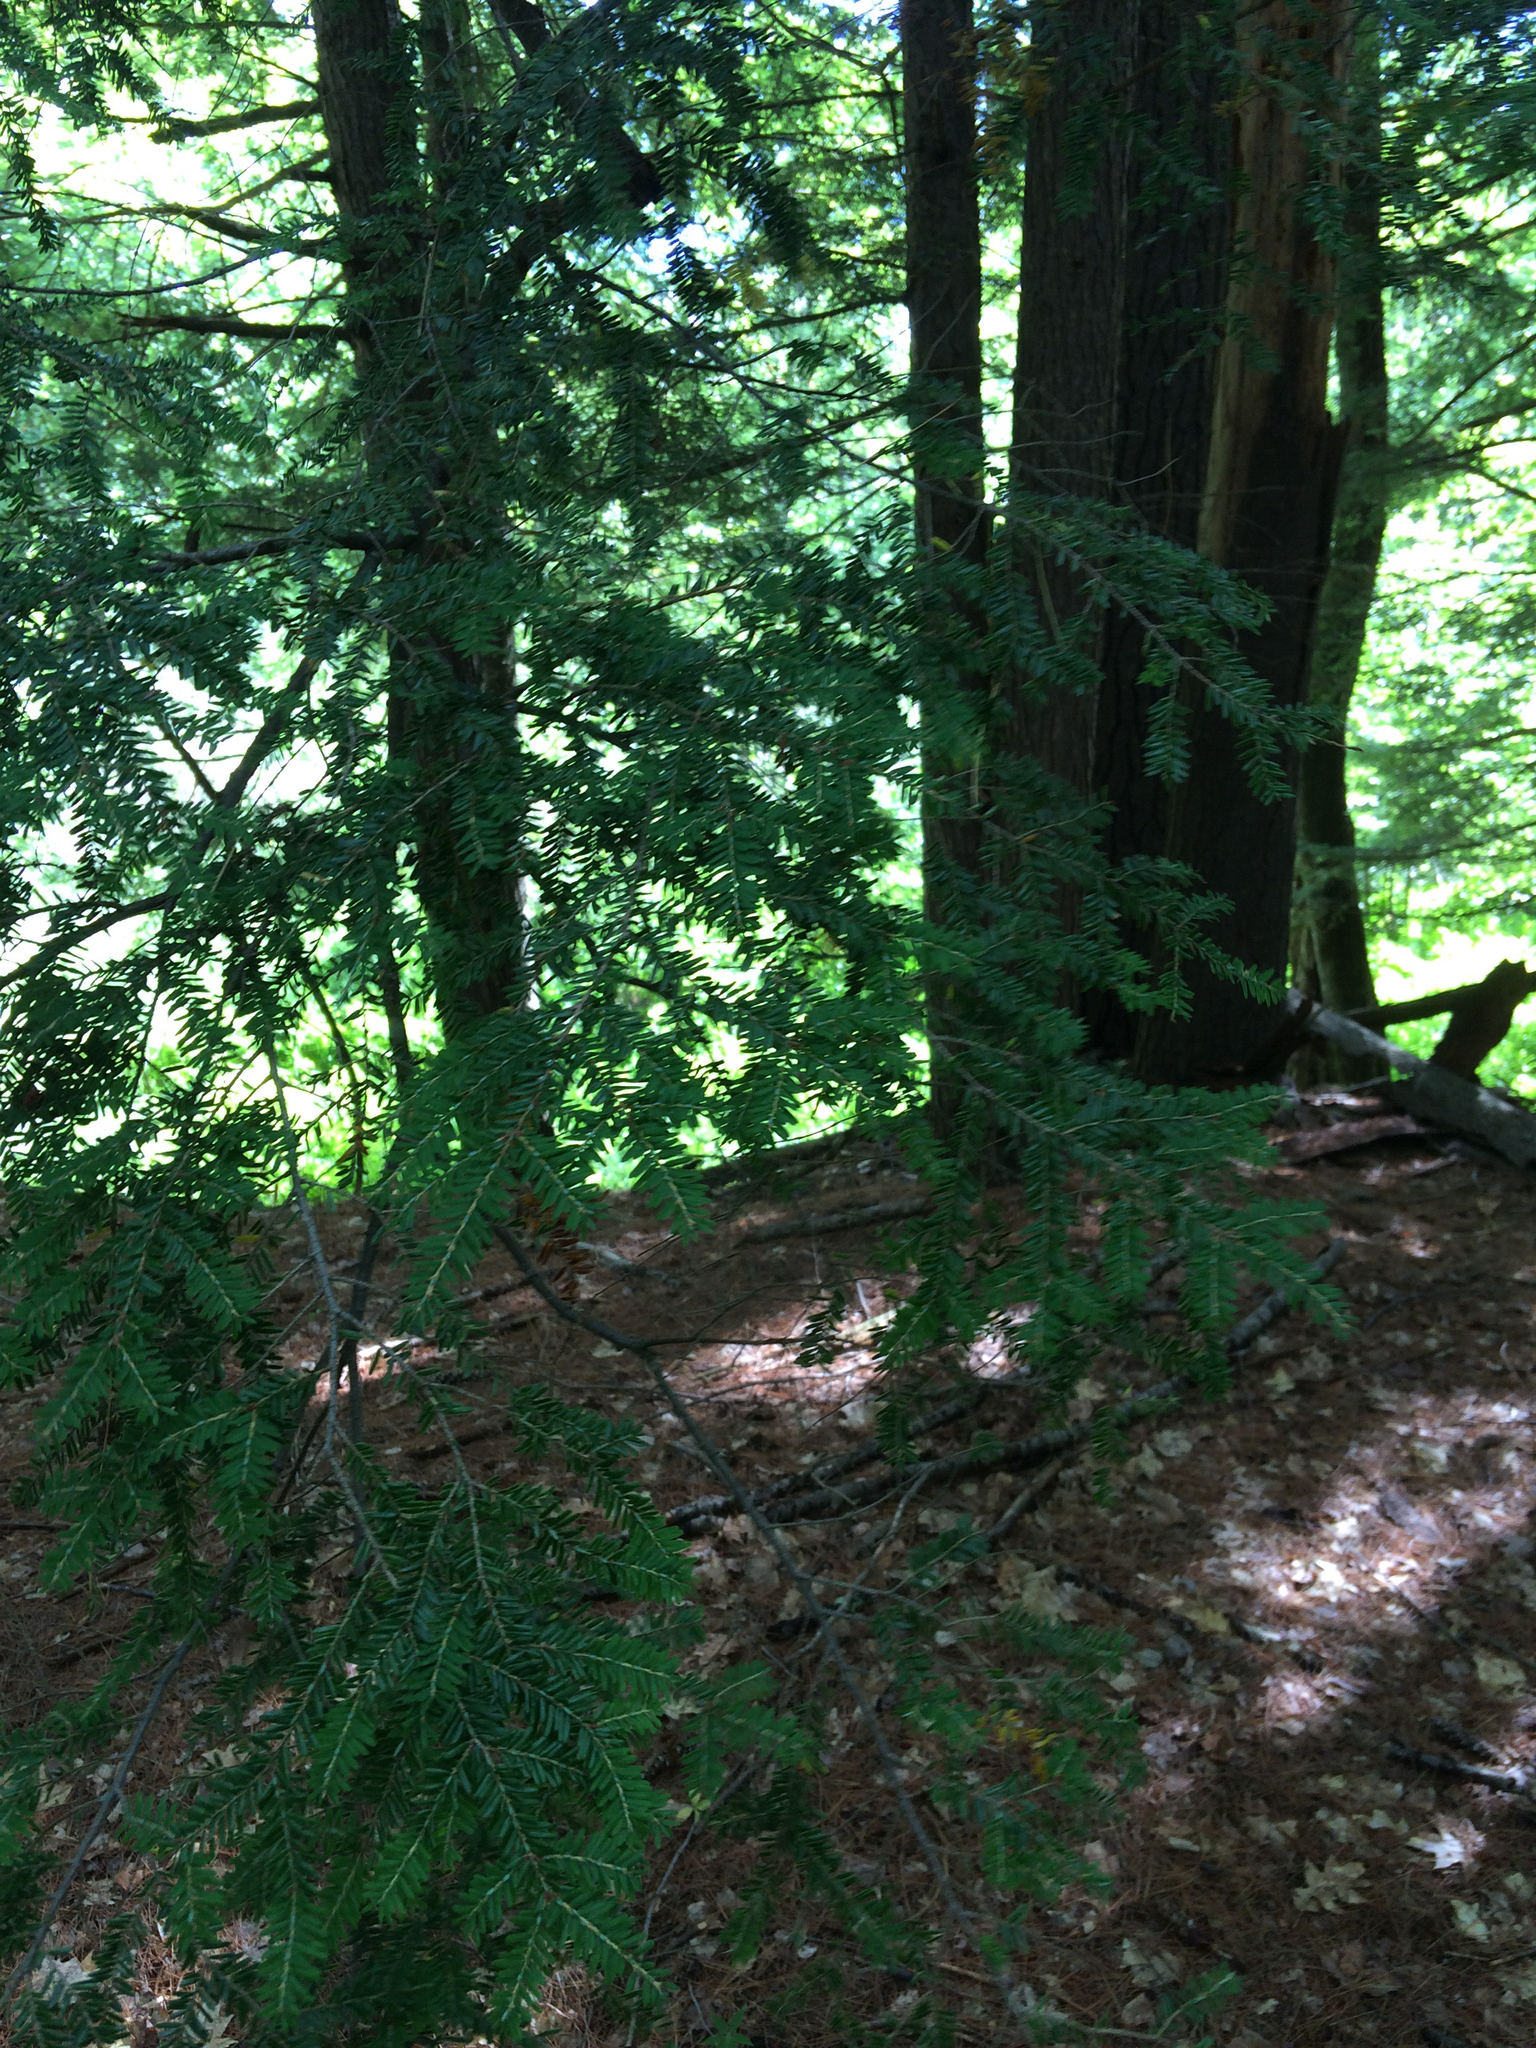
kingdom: Plantae
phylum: Tracheophyta
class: Pinopsida
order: Pinales
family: Pinaceae
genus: Tsuga
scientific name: Tsuga canadensis
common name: Eastern hemlock
